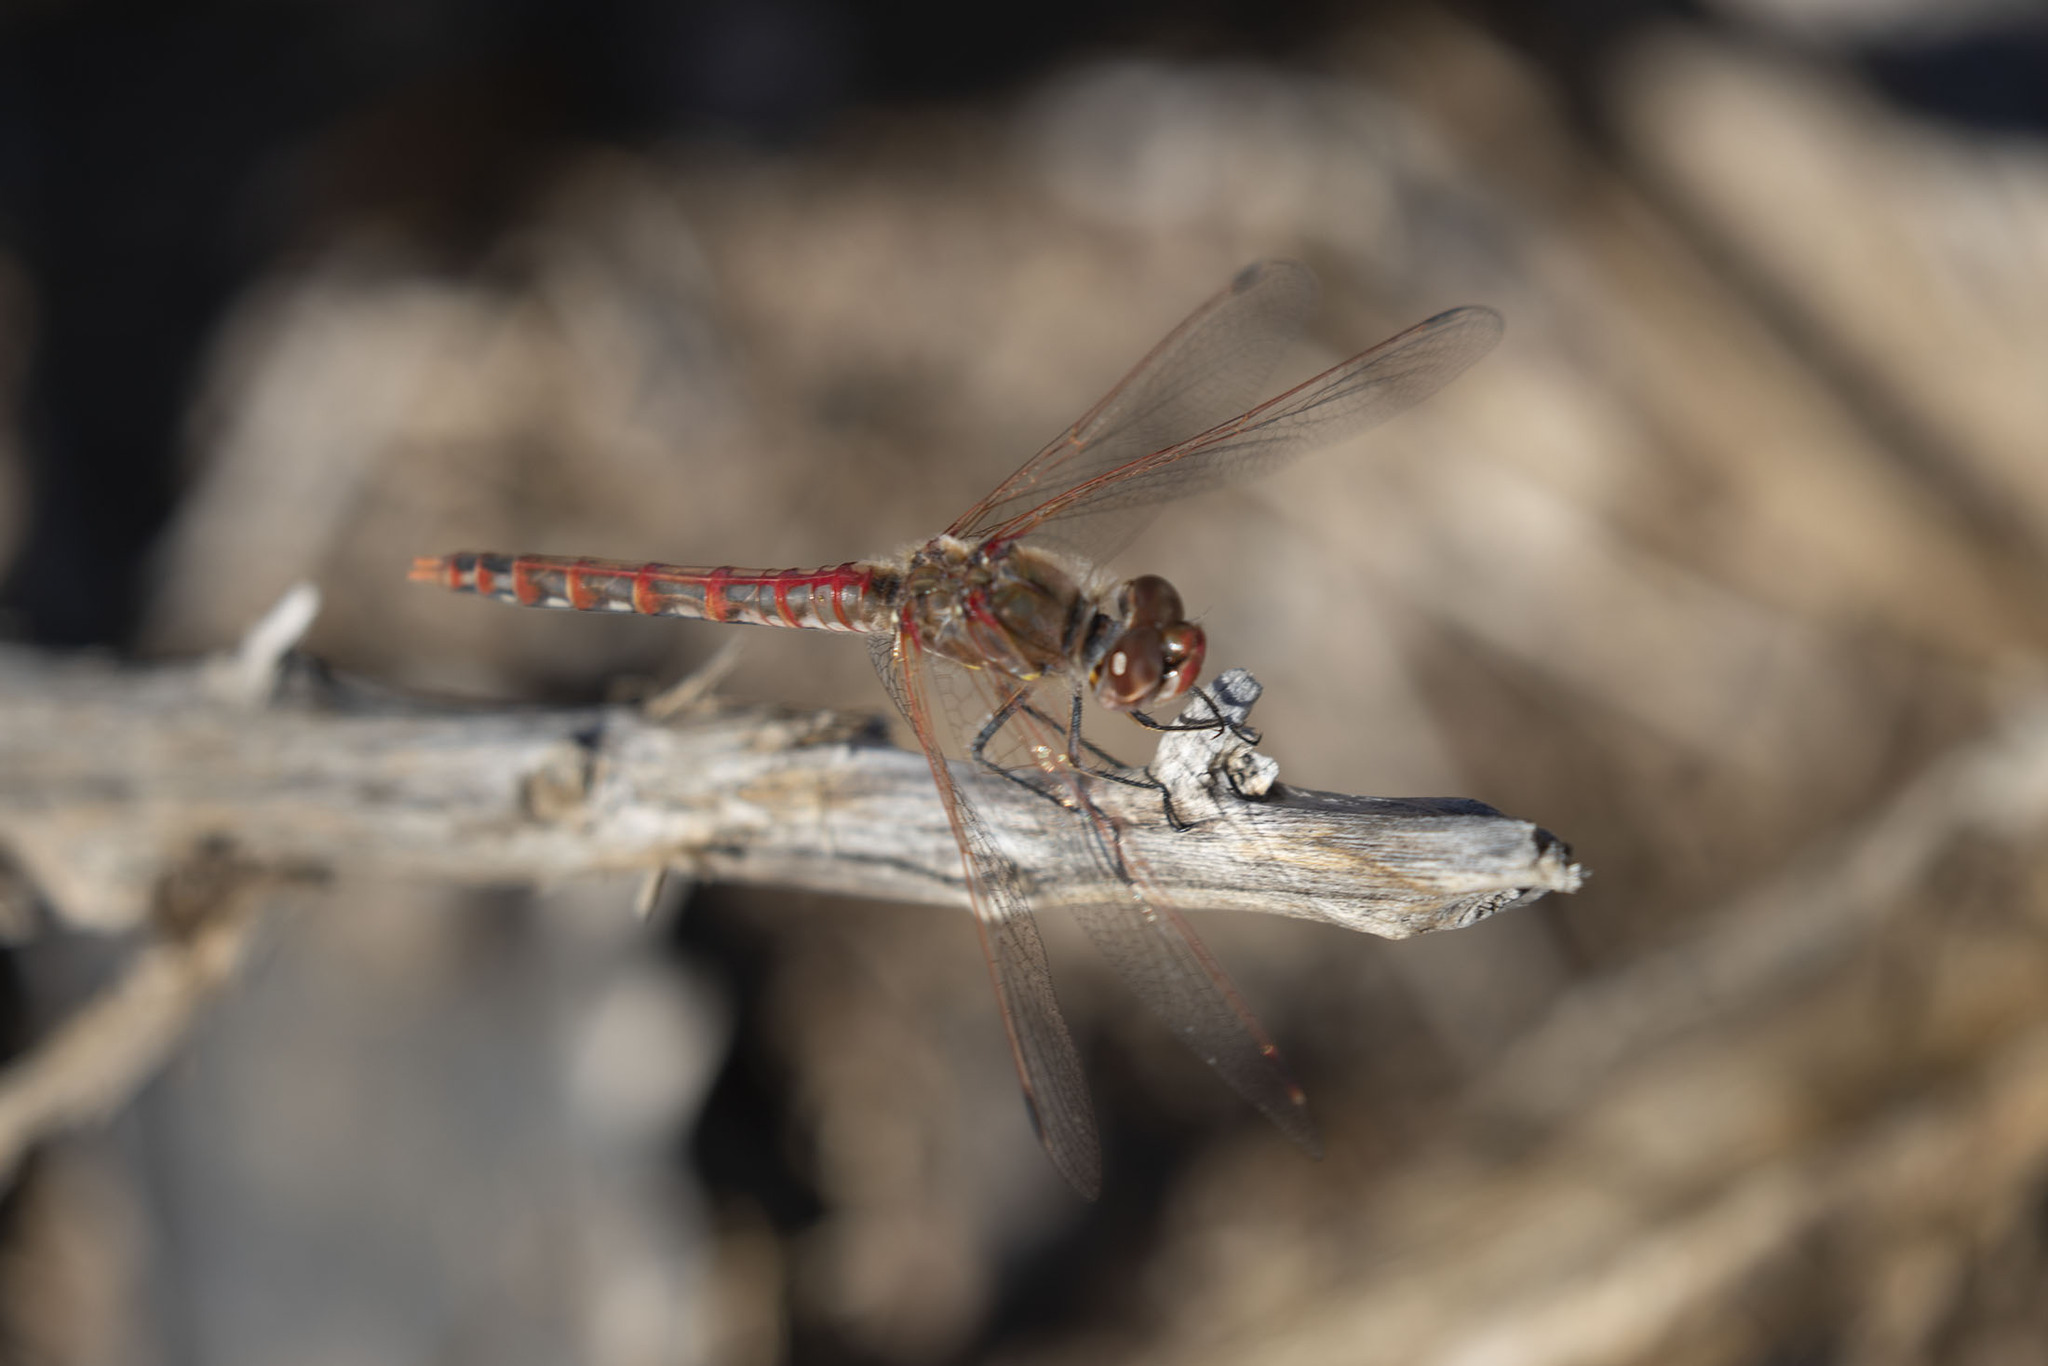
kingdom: Animalia
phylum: Arthropoda
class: Insecta
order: Odonata
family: Libellulidae
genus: Sympetrum
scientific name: Sympetrum corruptum
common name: Variegated meadowhawk
